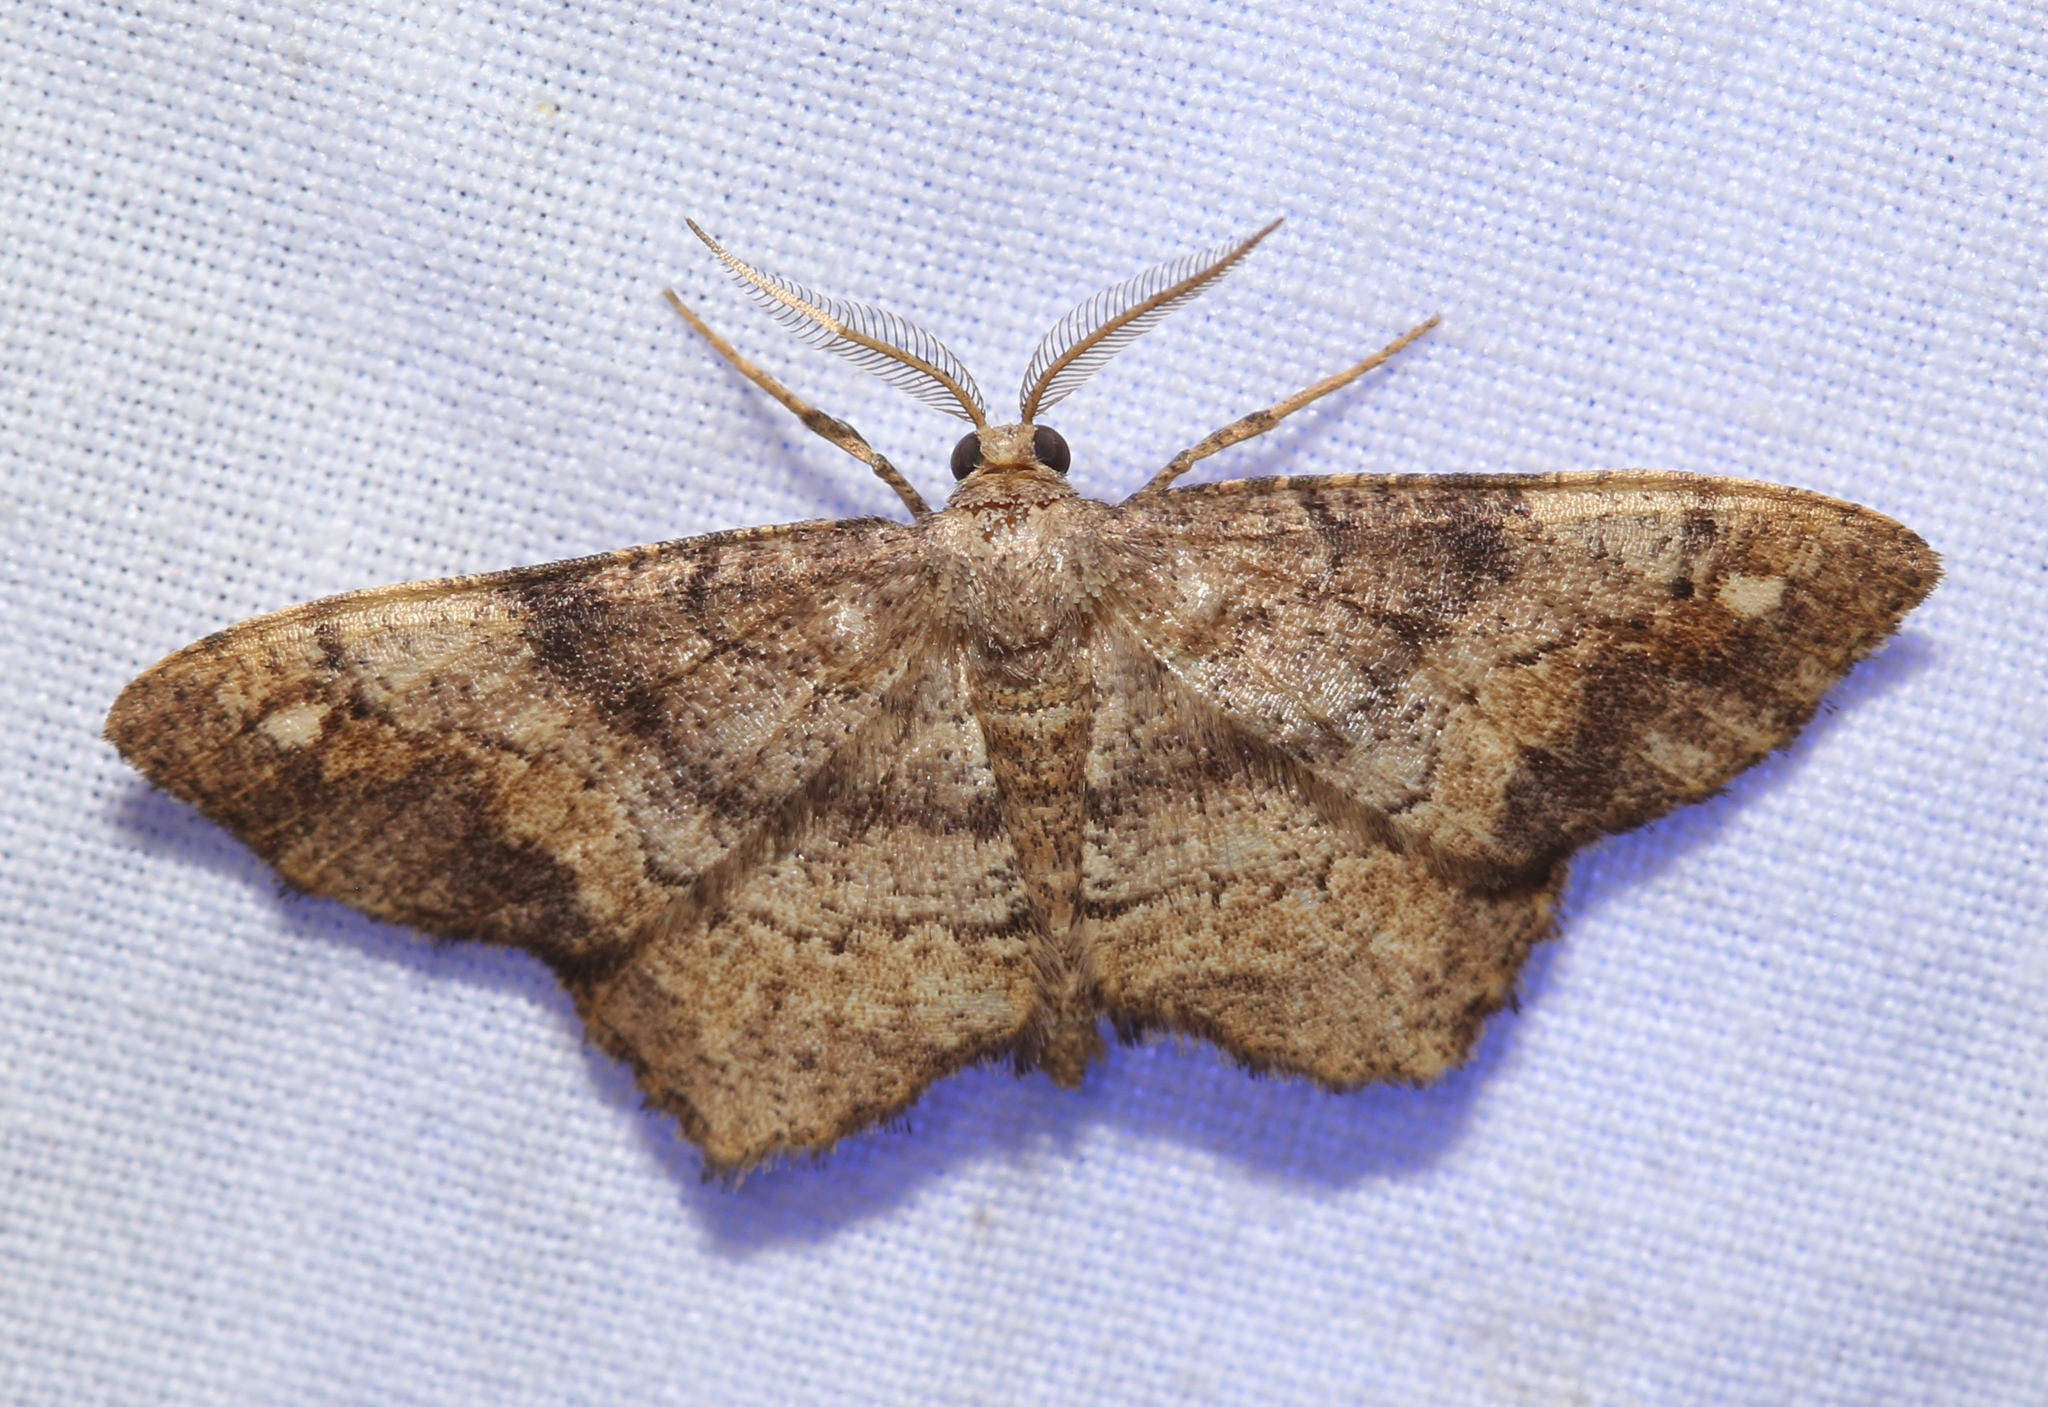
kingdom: Animalia
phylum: Arthropoda
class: Insecta
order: Lepidoptera
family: Geometridae
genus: Hypagyrtis
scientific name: Hypagyrtis unipunctata
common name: One-spotted variant
